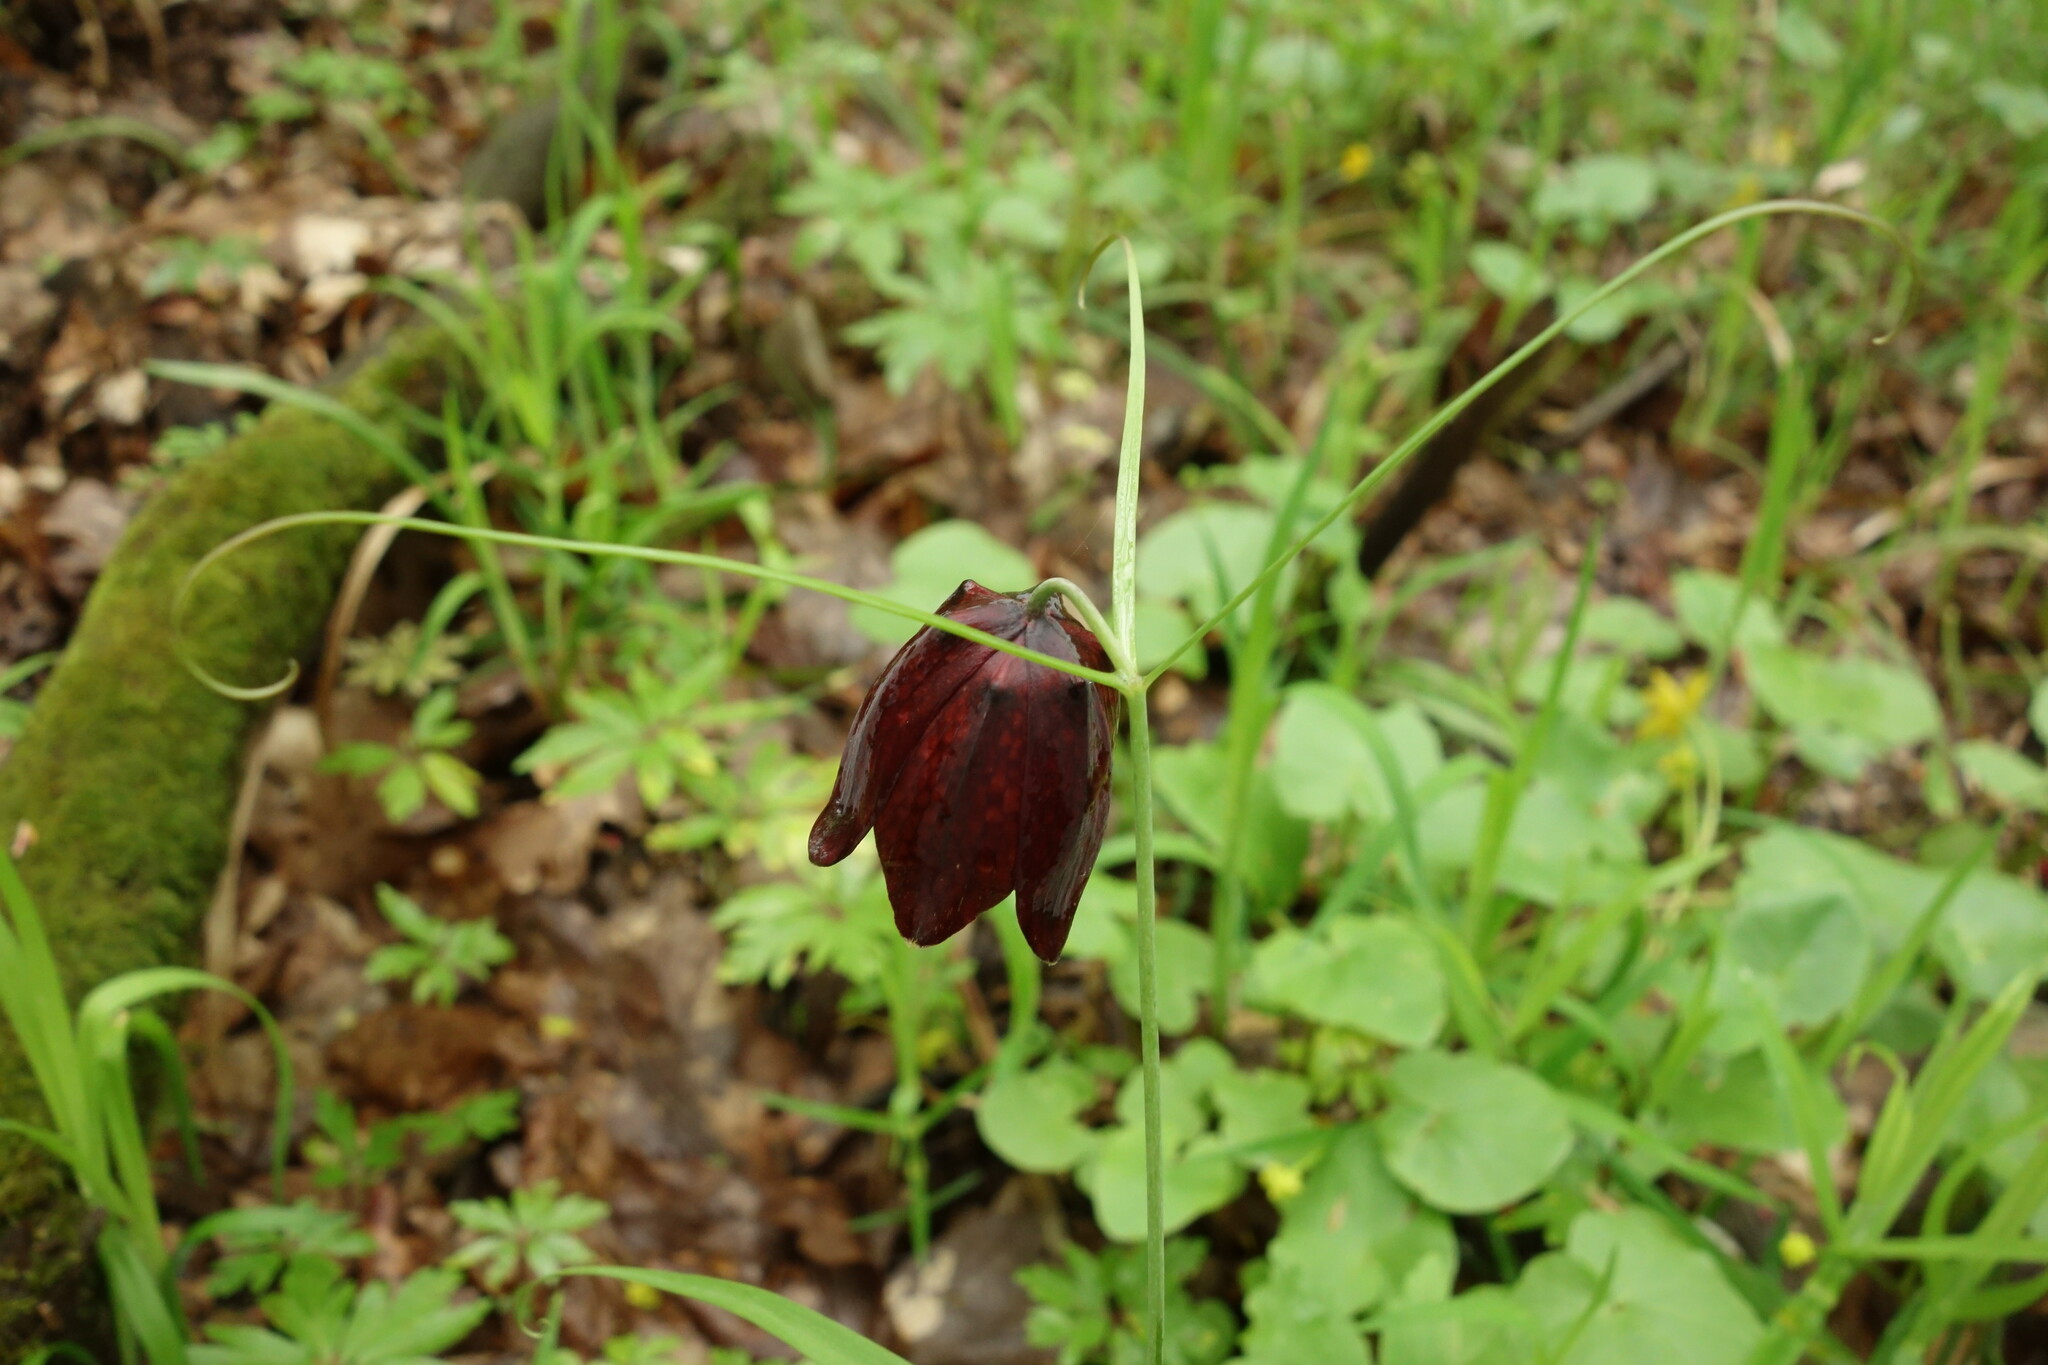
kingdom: Plantae
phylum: Tracheophyta
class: Liliopsida
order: Liliales
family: Liliaceae
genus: Fritillaria
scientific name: Fritillaria ruthenica
